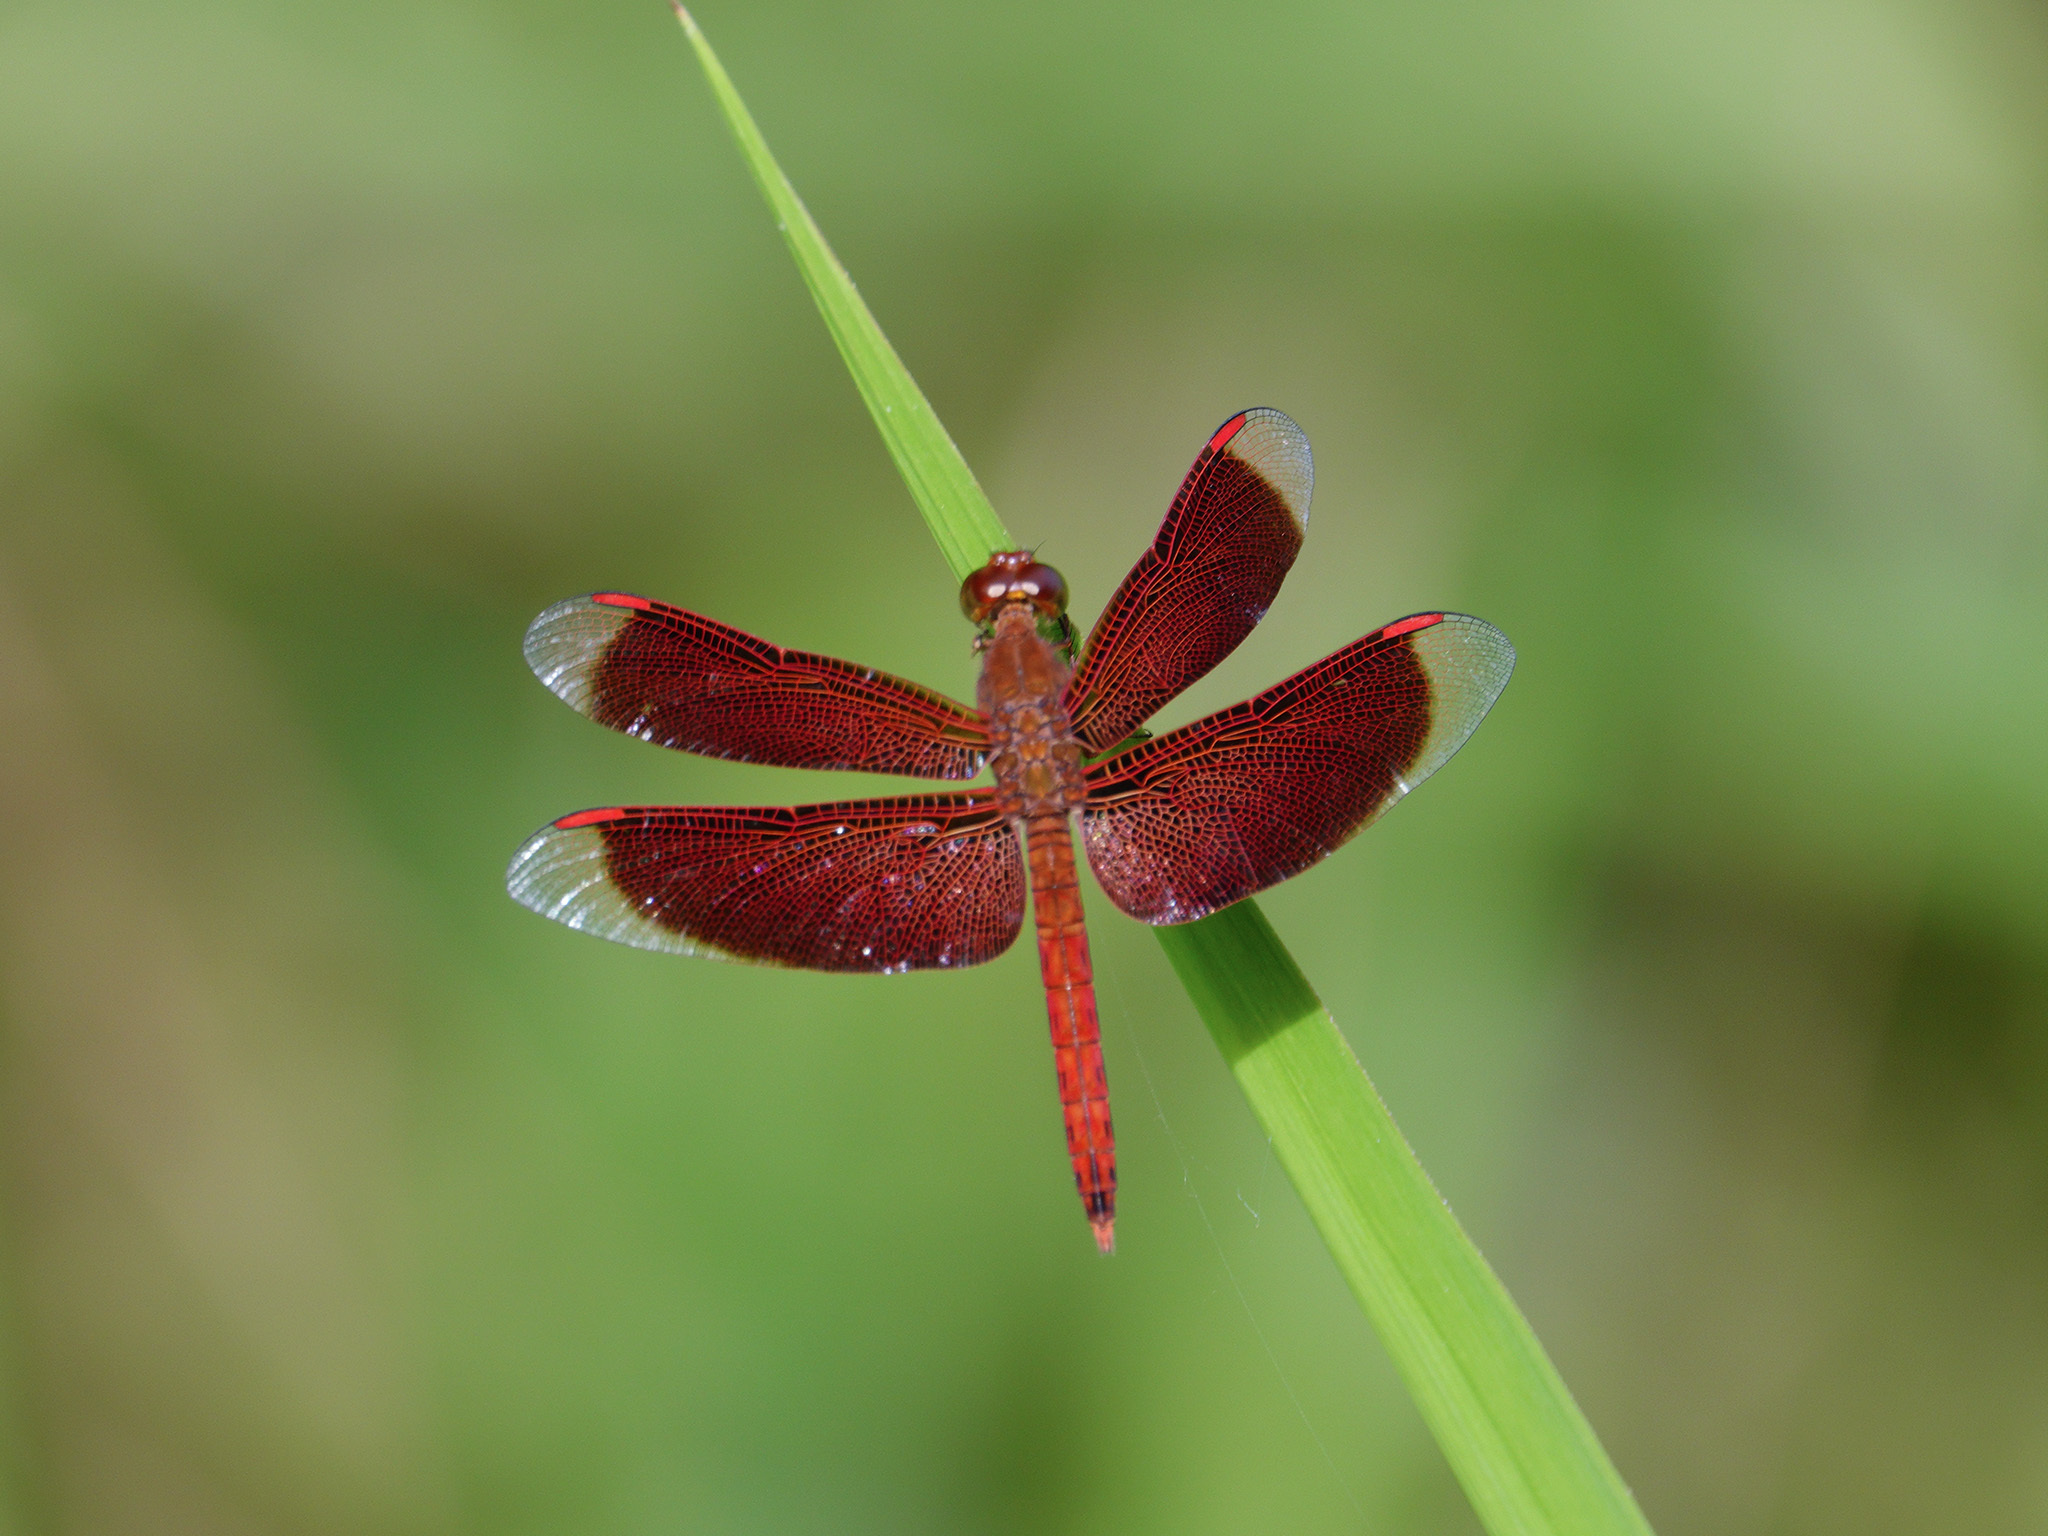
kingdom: Animalia
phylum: Arthropoda
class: Insecta
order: Odonata
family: Libellulidae
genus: Neurothemis
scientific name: Neurothemis fluctuans
